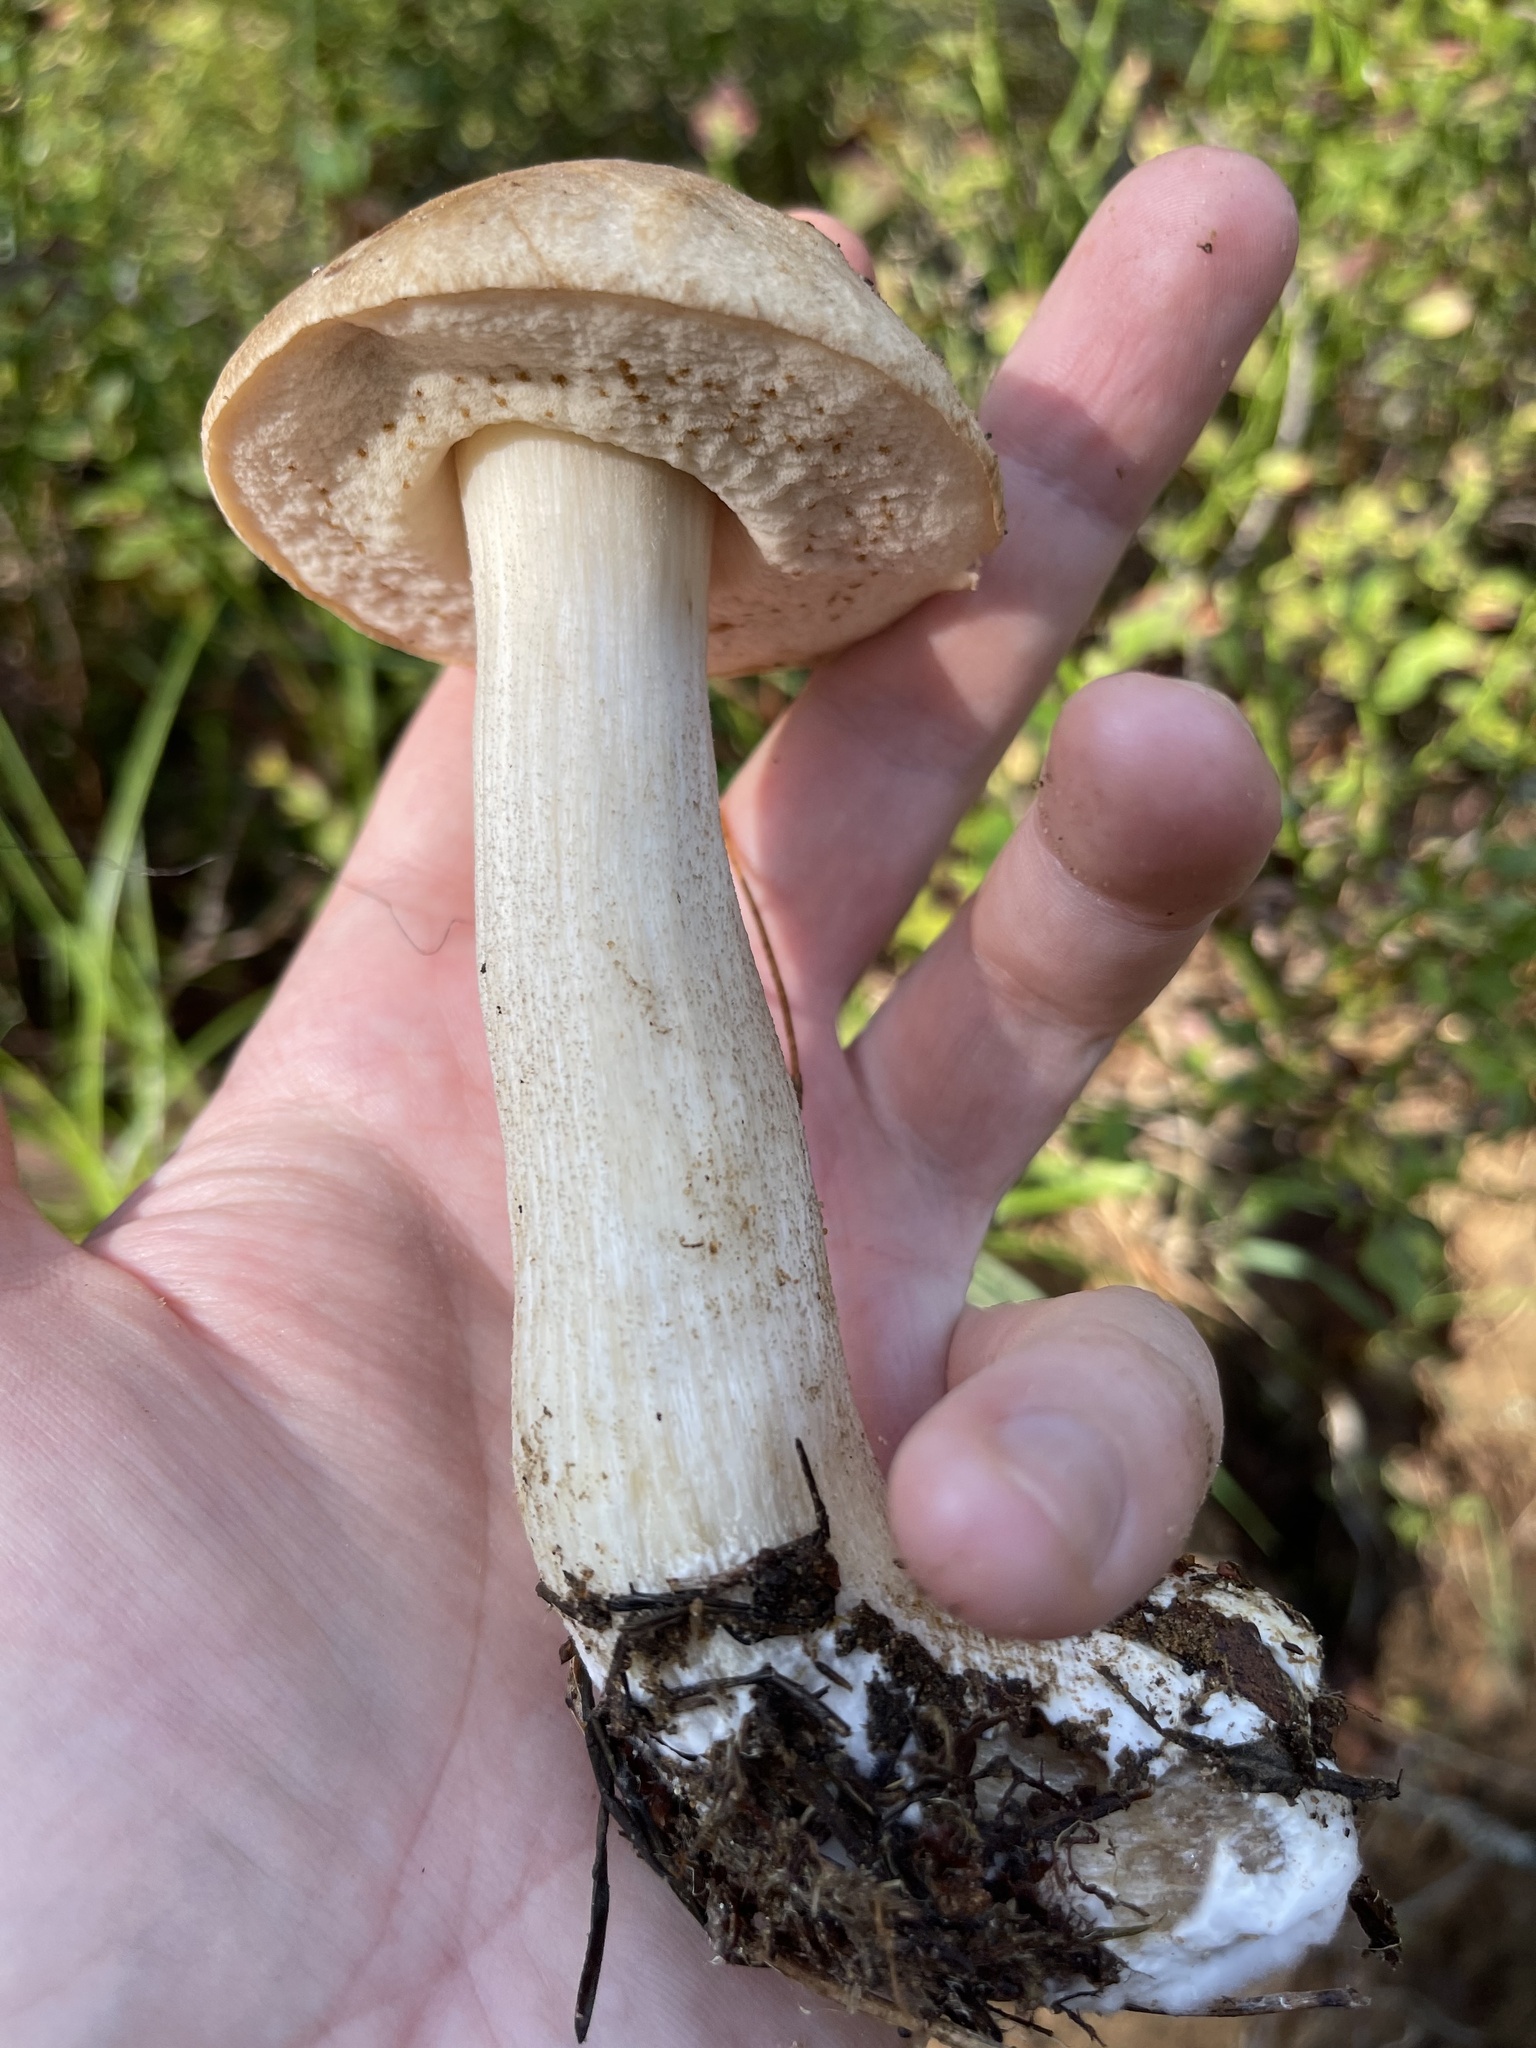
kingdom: Fungi
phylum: Basidiomycota
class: Agaricomycetes
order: Boletales
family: Boletaceae
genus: Leccinum
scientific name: Leccinum scabrum
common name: Blushing bolete
